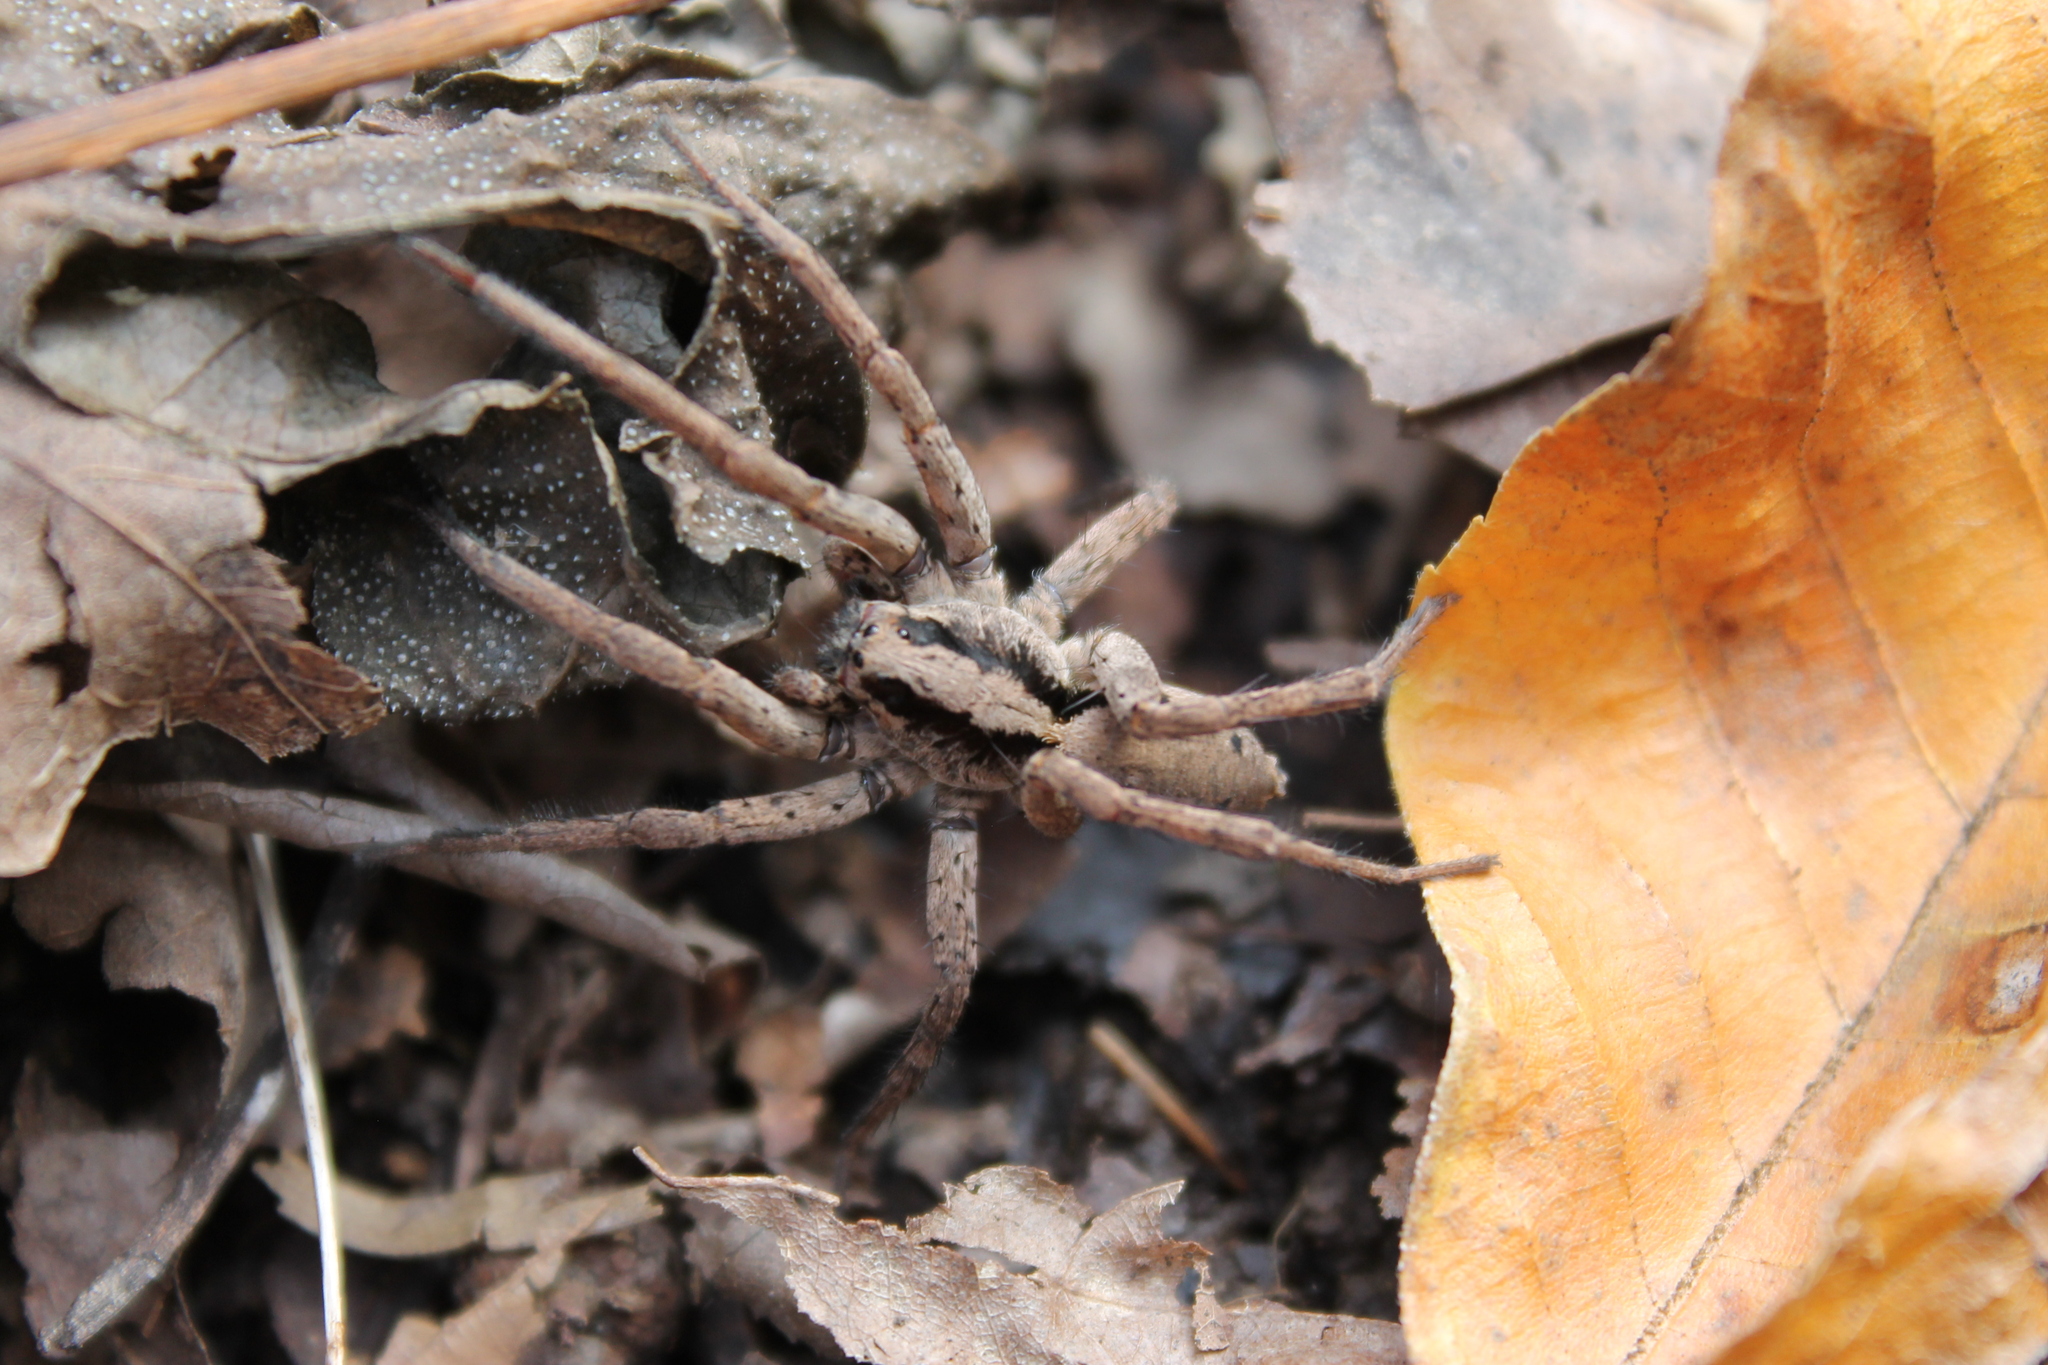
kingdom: Animalia
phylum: Arthropoda
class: Arachnida
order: Araneae
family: Lycosidae
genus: Gladicosa
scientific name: Gladicosa gulosa
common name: Drumming sword wolf spider
